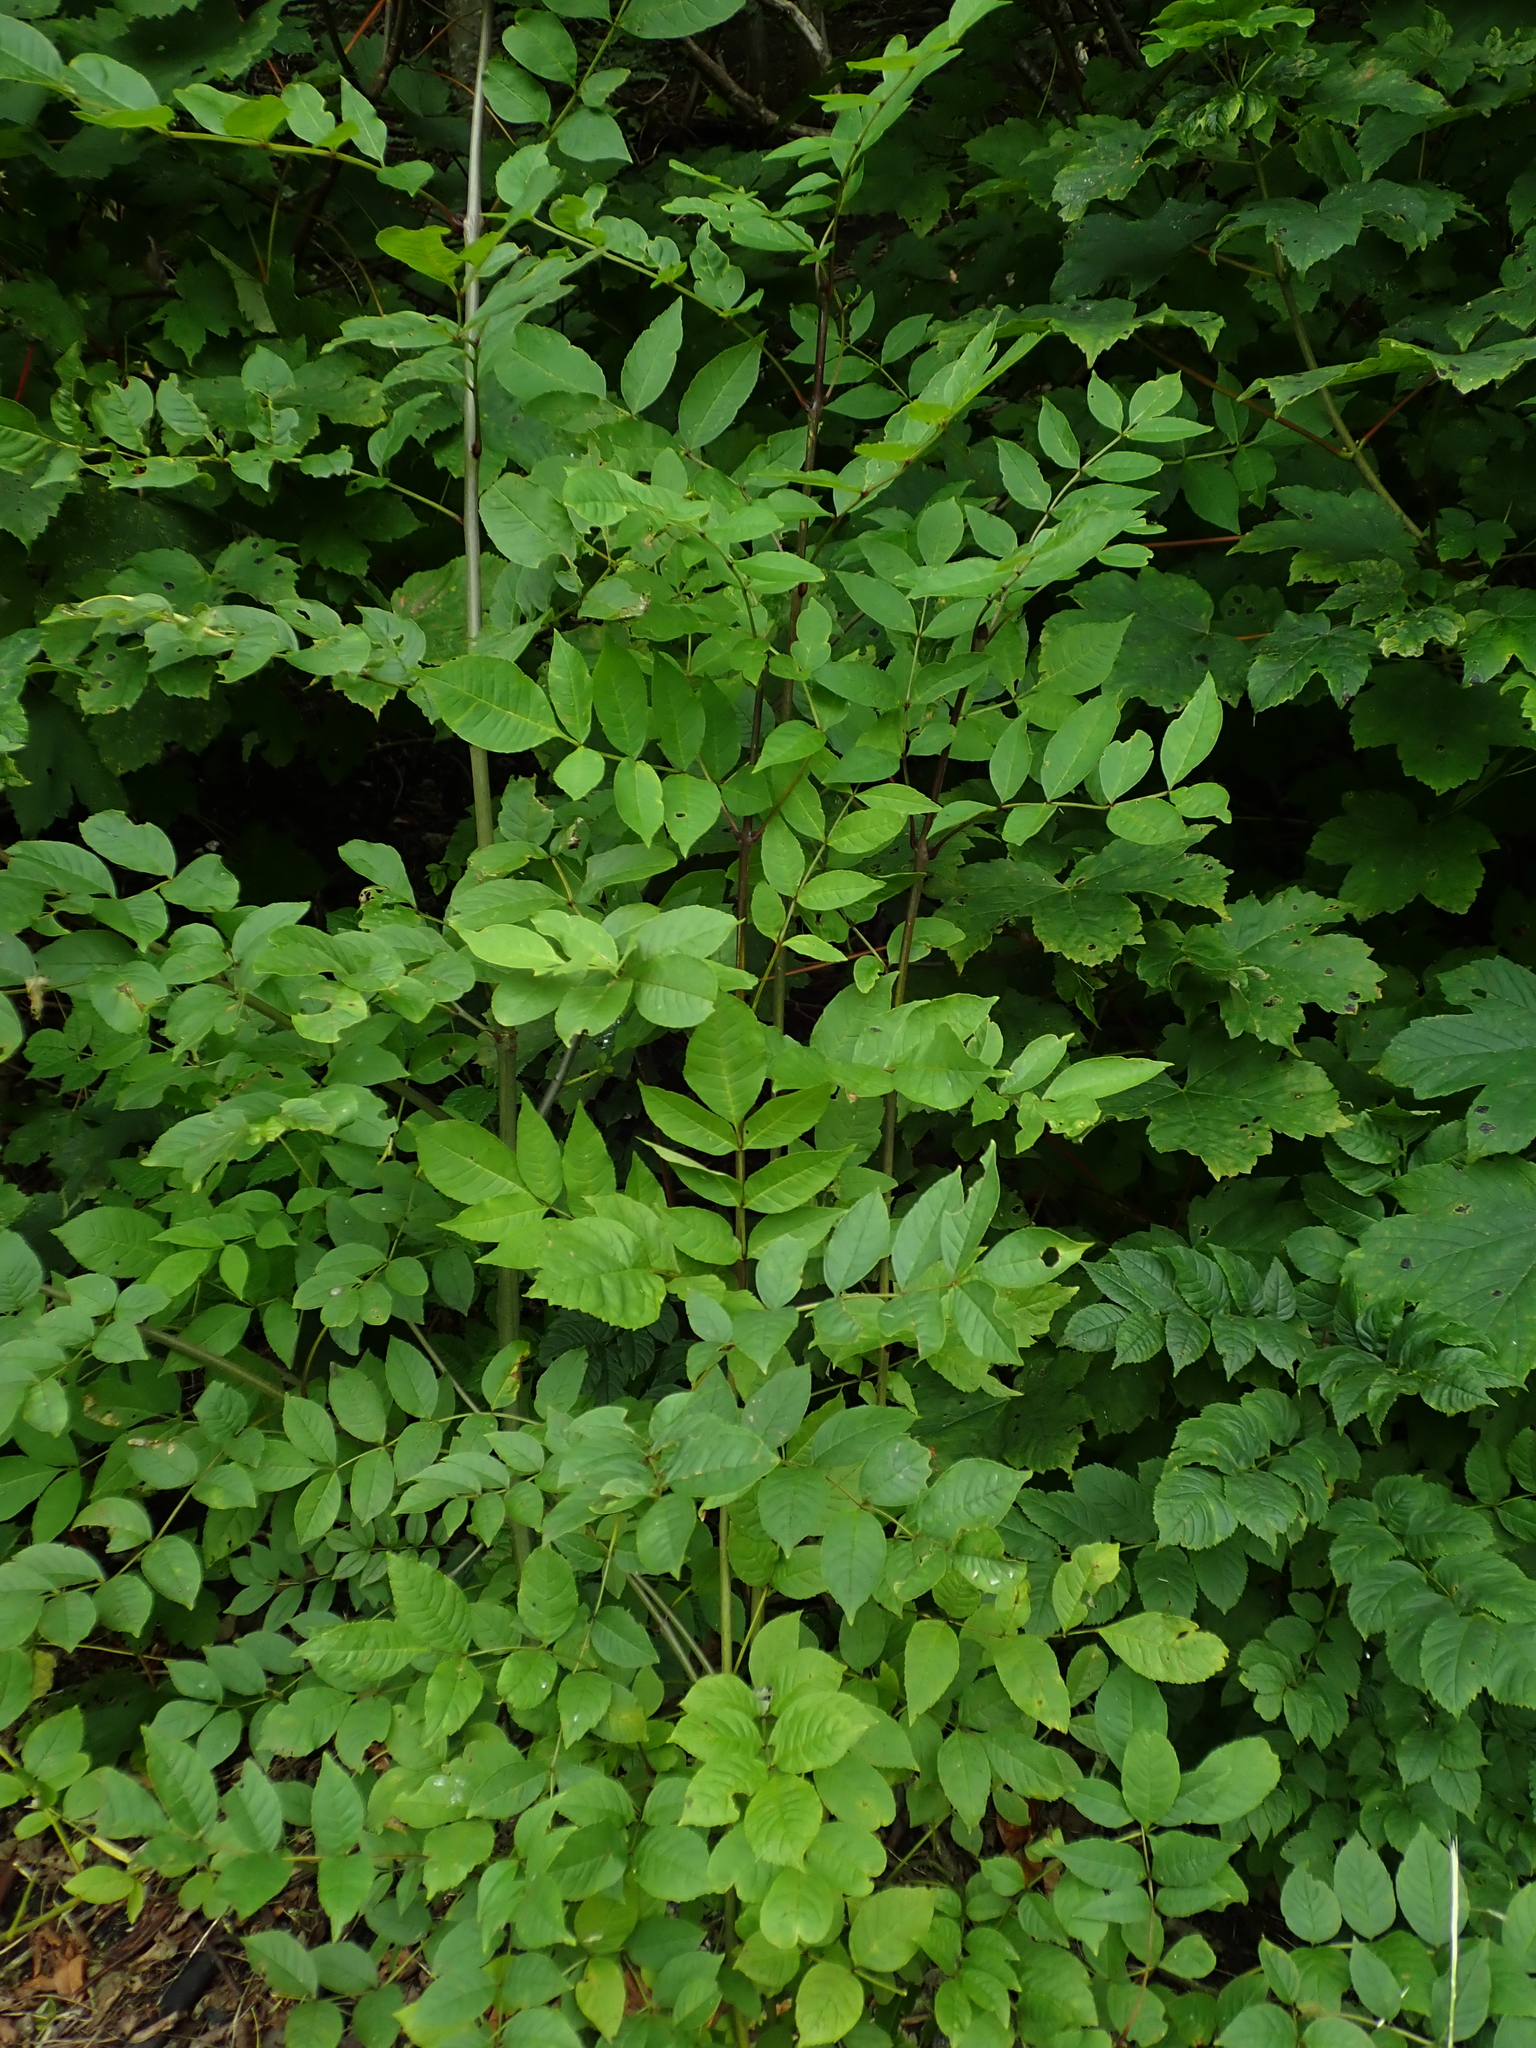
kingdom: Plantae
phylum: Tracheophyta
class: Magnoliopsida
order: Lamiales
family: Oleaceae
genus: Fraxinus
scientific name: Fraxinus excelsior
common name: European ash
